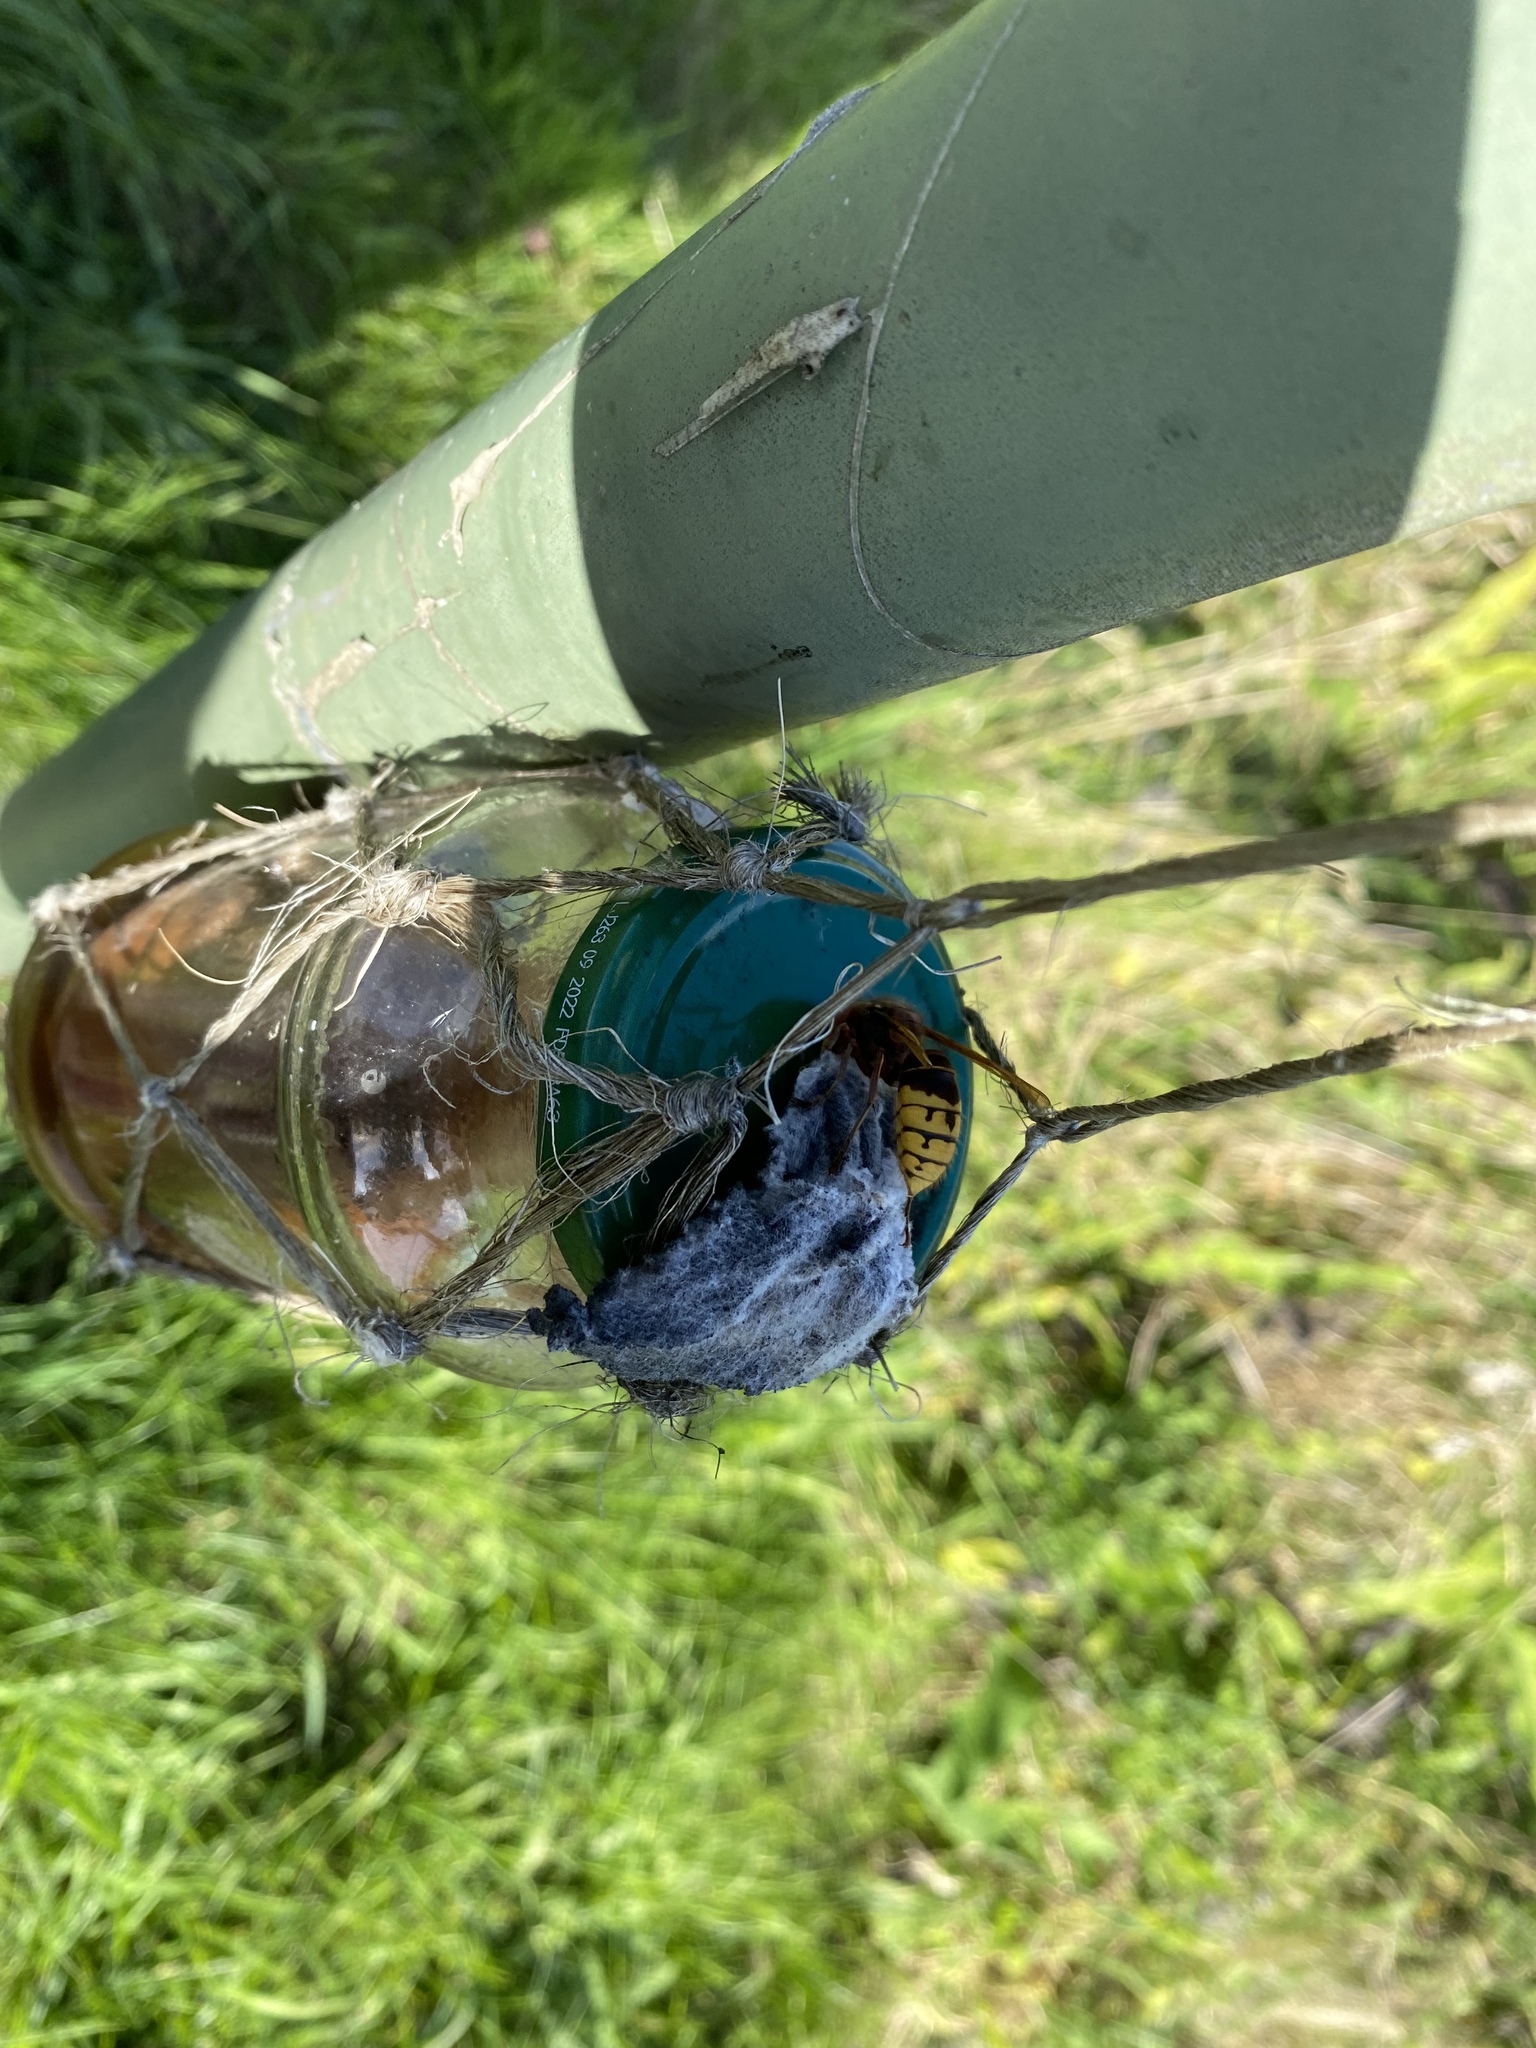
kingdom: Animalia
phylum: Arthropoda
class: Insecta
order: Hymenoptera
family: Vespidae
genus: Vespa
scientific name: Vespa crabro
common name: Hornet
